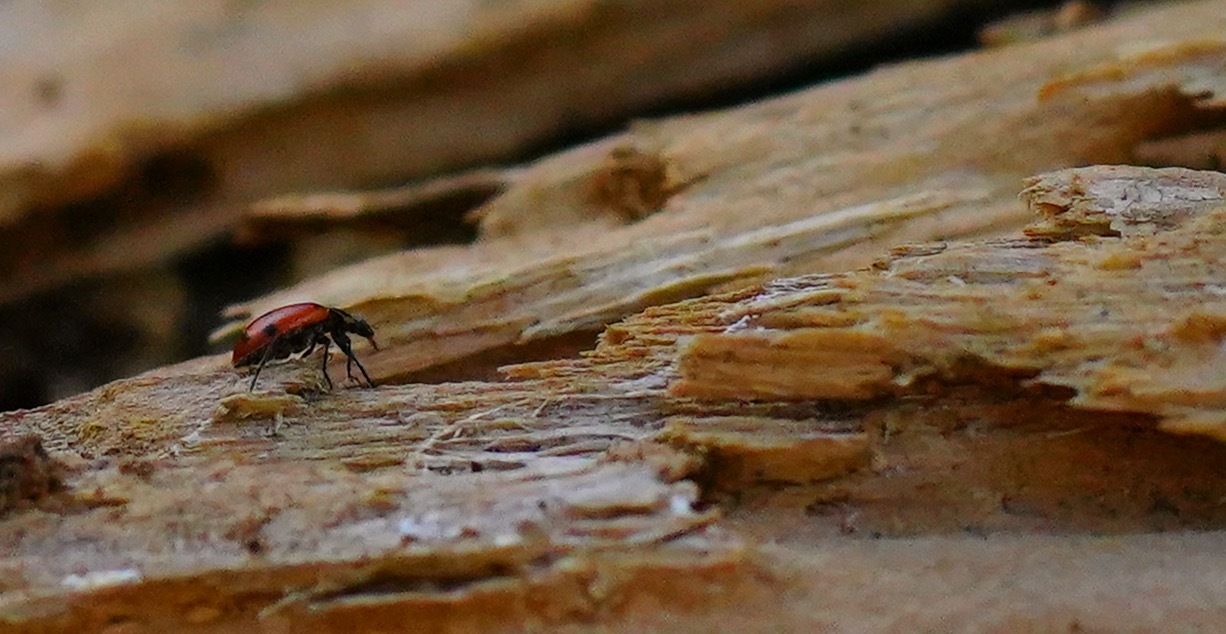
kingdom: Animalia
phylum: Arthropoda
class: Insecta
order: Coleoptera
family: Coccinellidae
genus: Hippodamia
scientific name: Hippodamia convergens
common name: Convergent lady beetle
